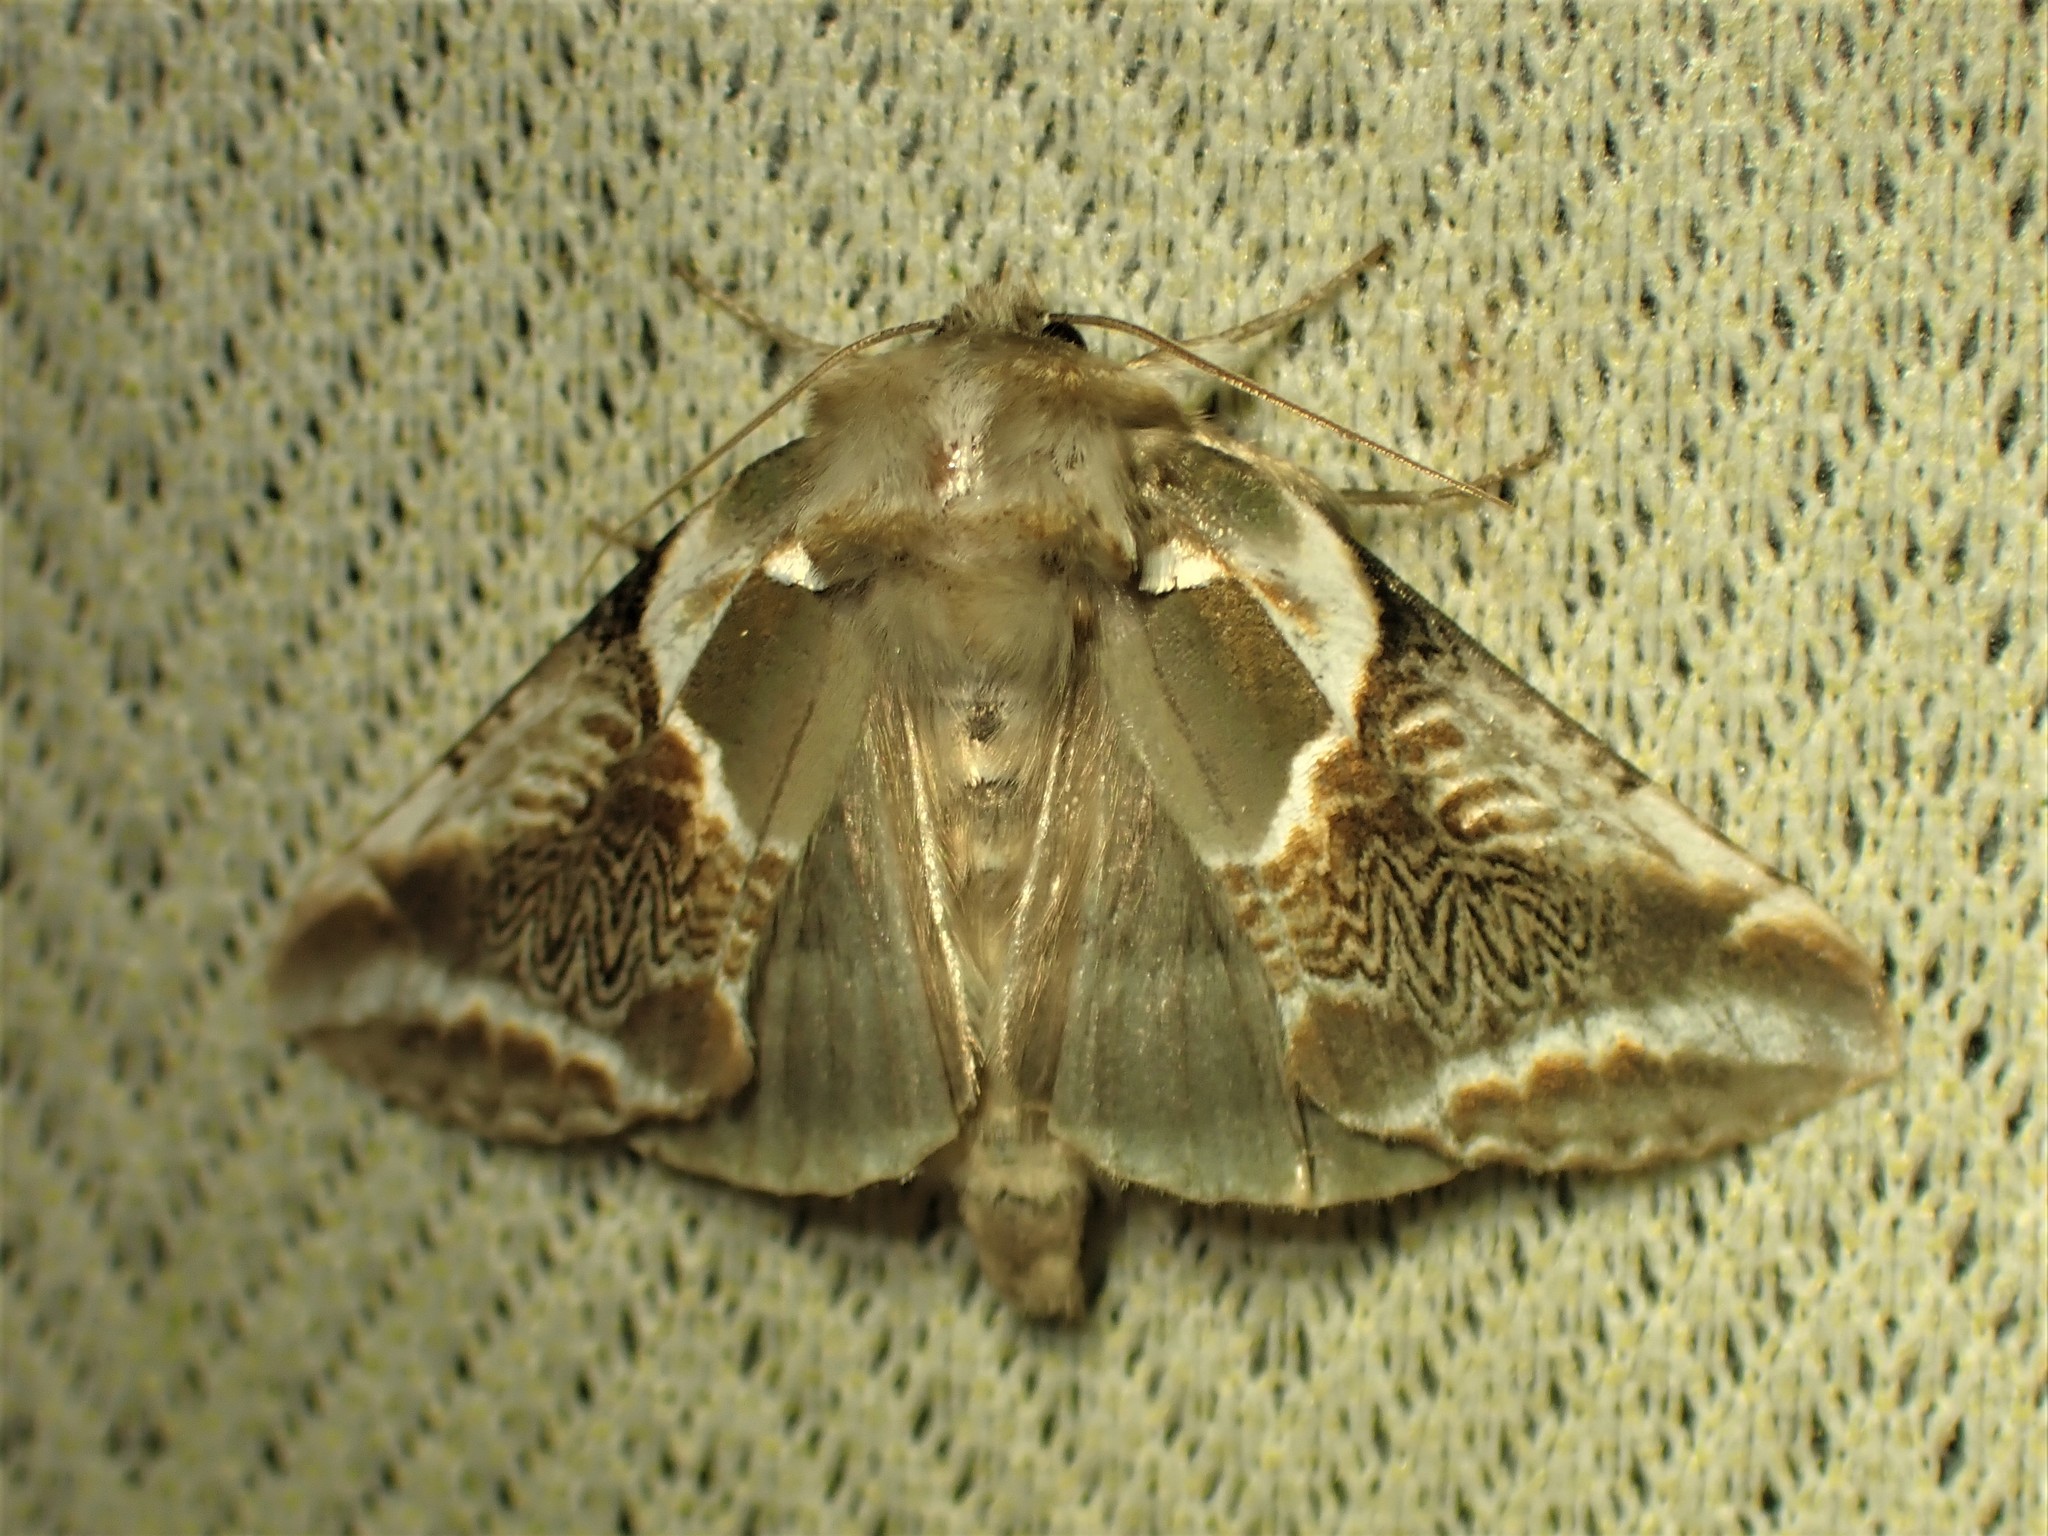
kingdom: Animalia
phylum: Arthropoda
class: Insecta
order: Lepidoptera
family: Drepanidae
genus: Habrosyne
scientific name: Habrosyne scripta
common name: Lettered habrosyne moth
